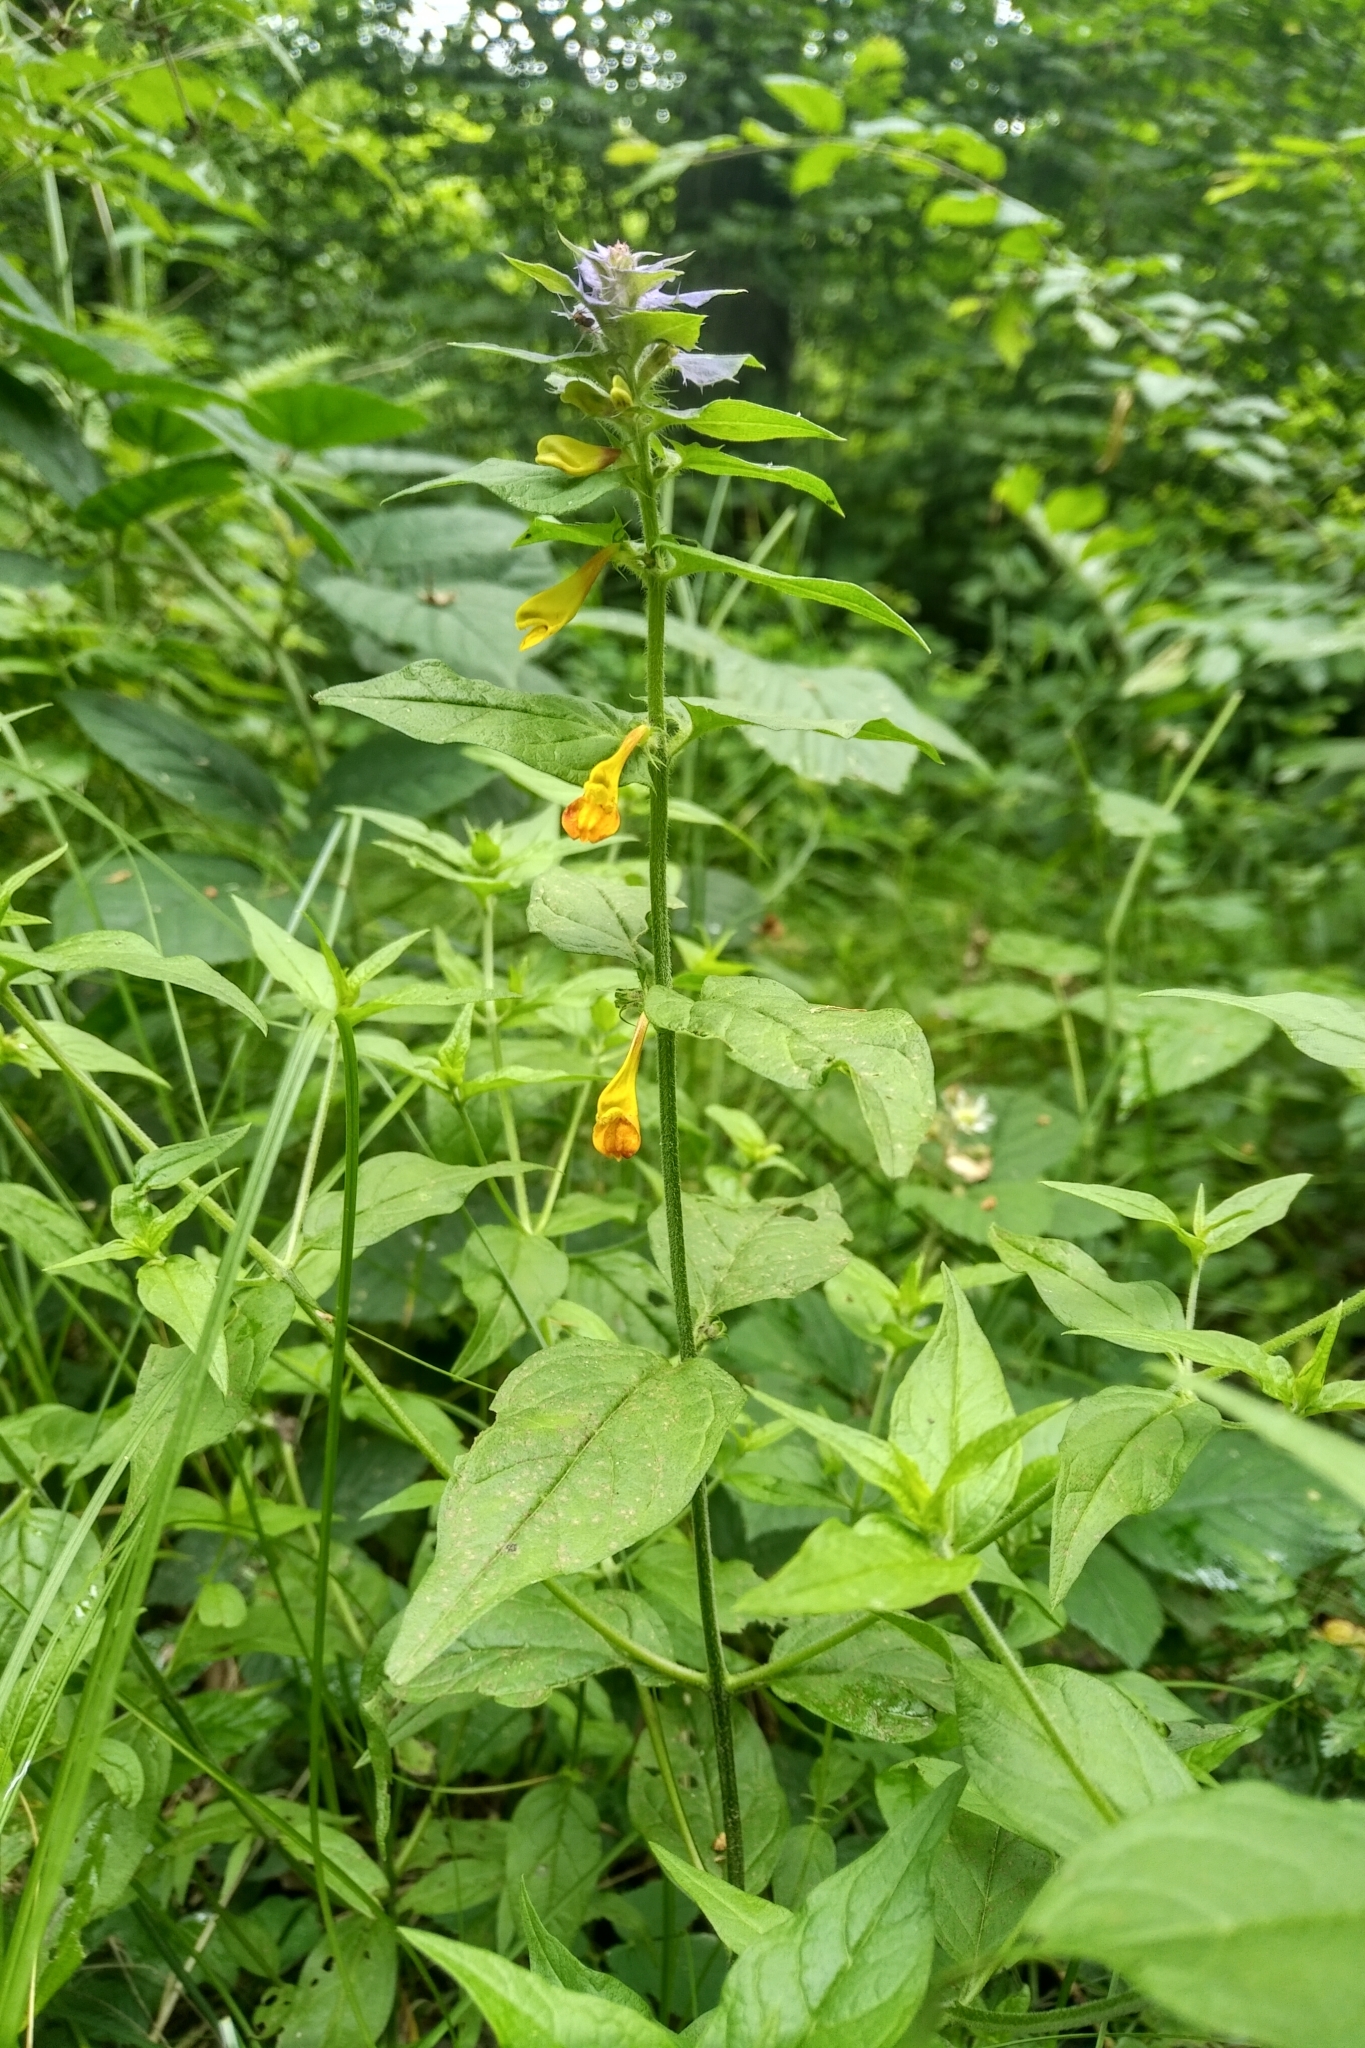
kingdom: Plantae
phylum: Tracheophyta
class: Magnoliopsida
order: Lamiales
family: Orobanchaceae
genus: Melampyrum
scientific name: Melampyrum nemorosum
